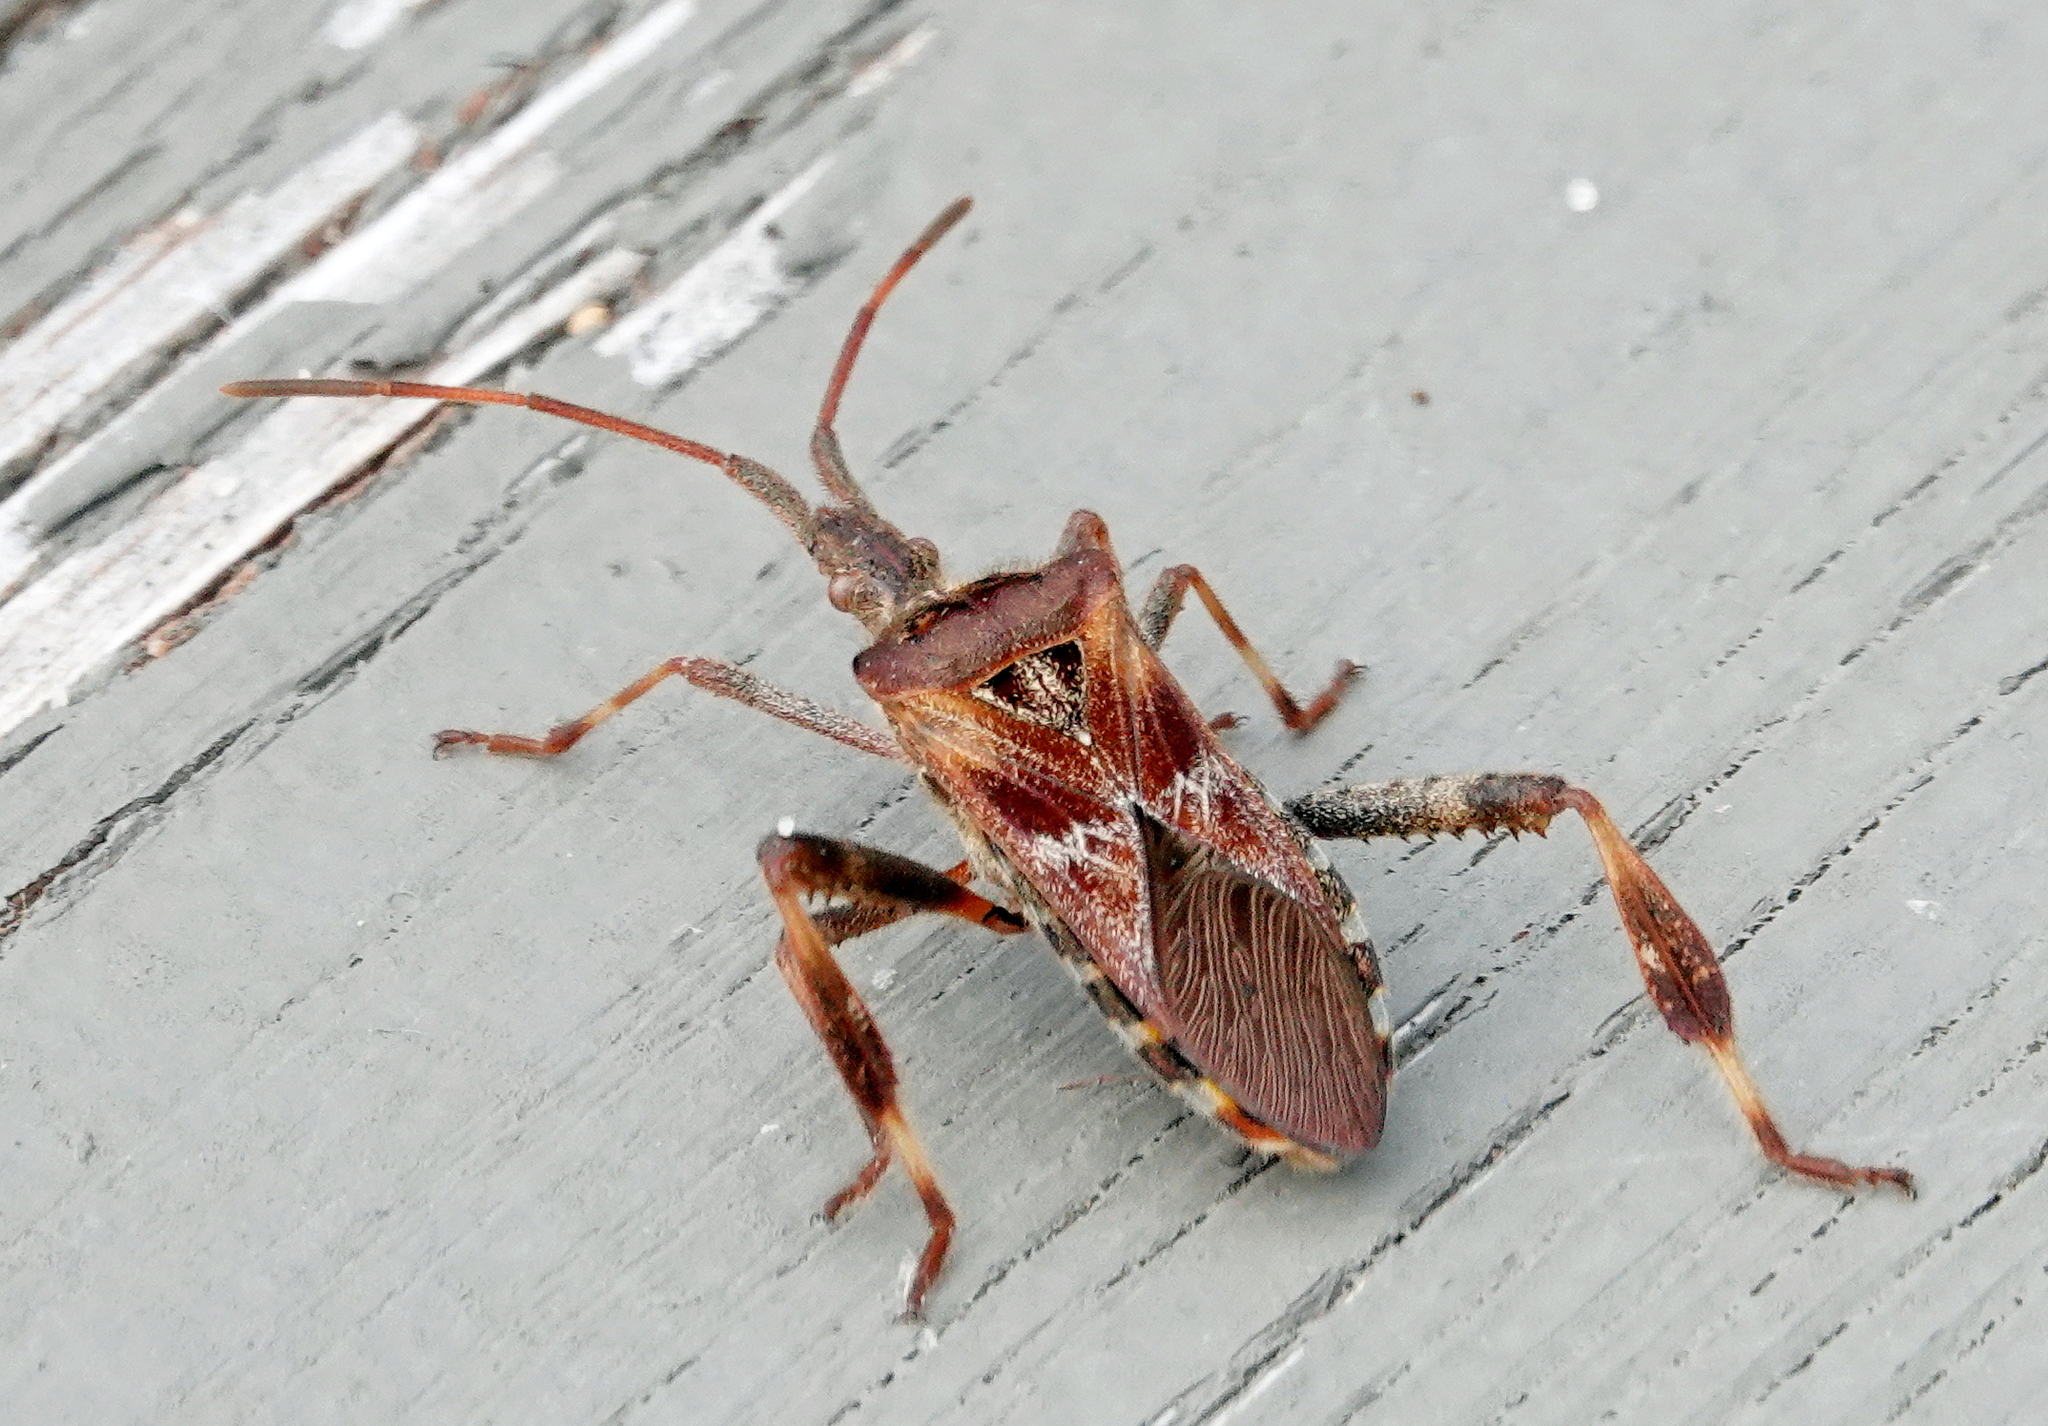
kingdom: Animalia
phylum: Arthropoda
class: Insecta
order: Hemiptera
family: Coreidae
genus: Leptoglossus
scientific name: Leptoglossus occidentalis
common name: Western conifer-seed bug
